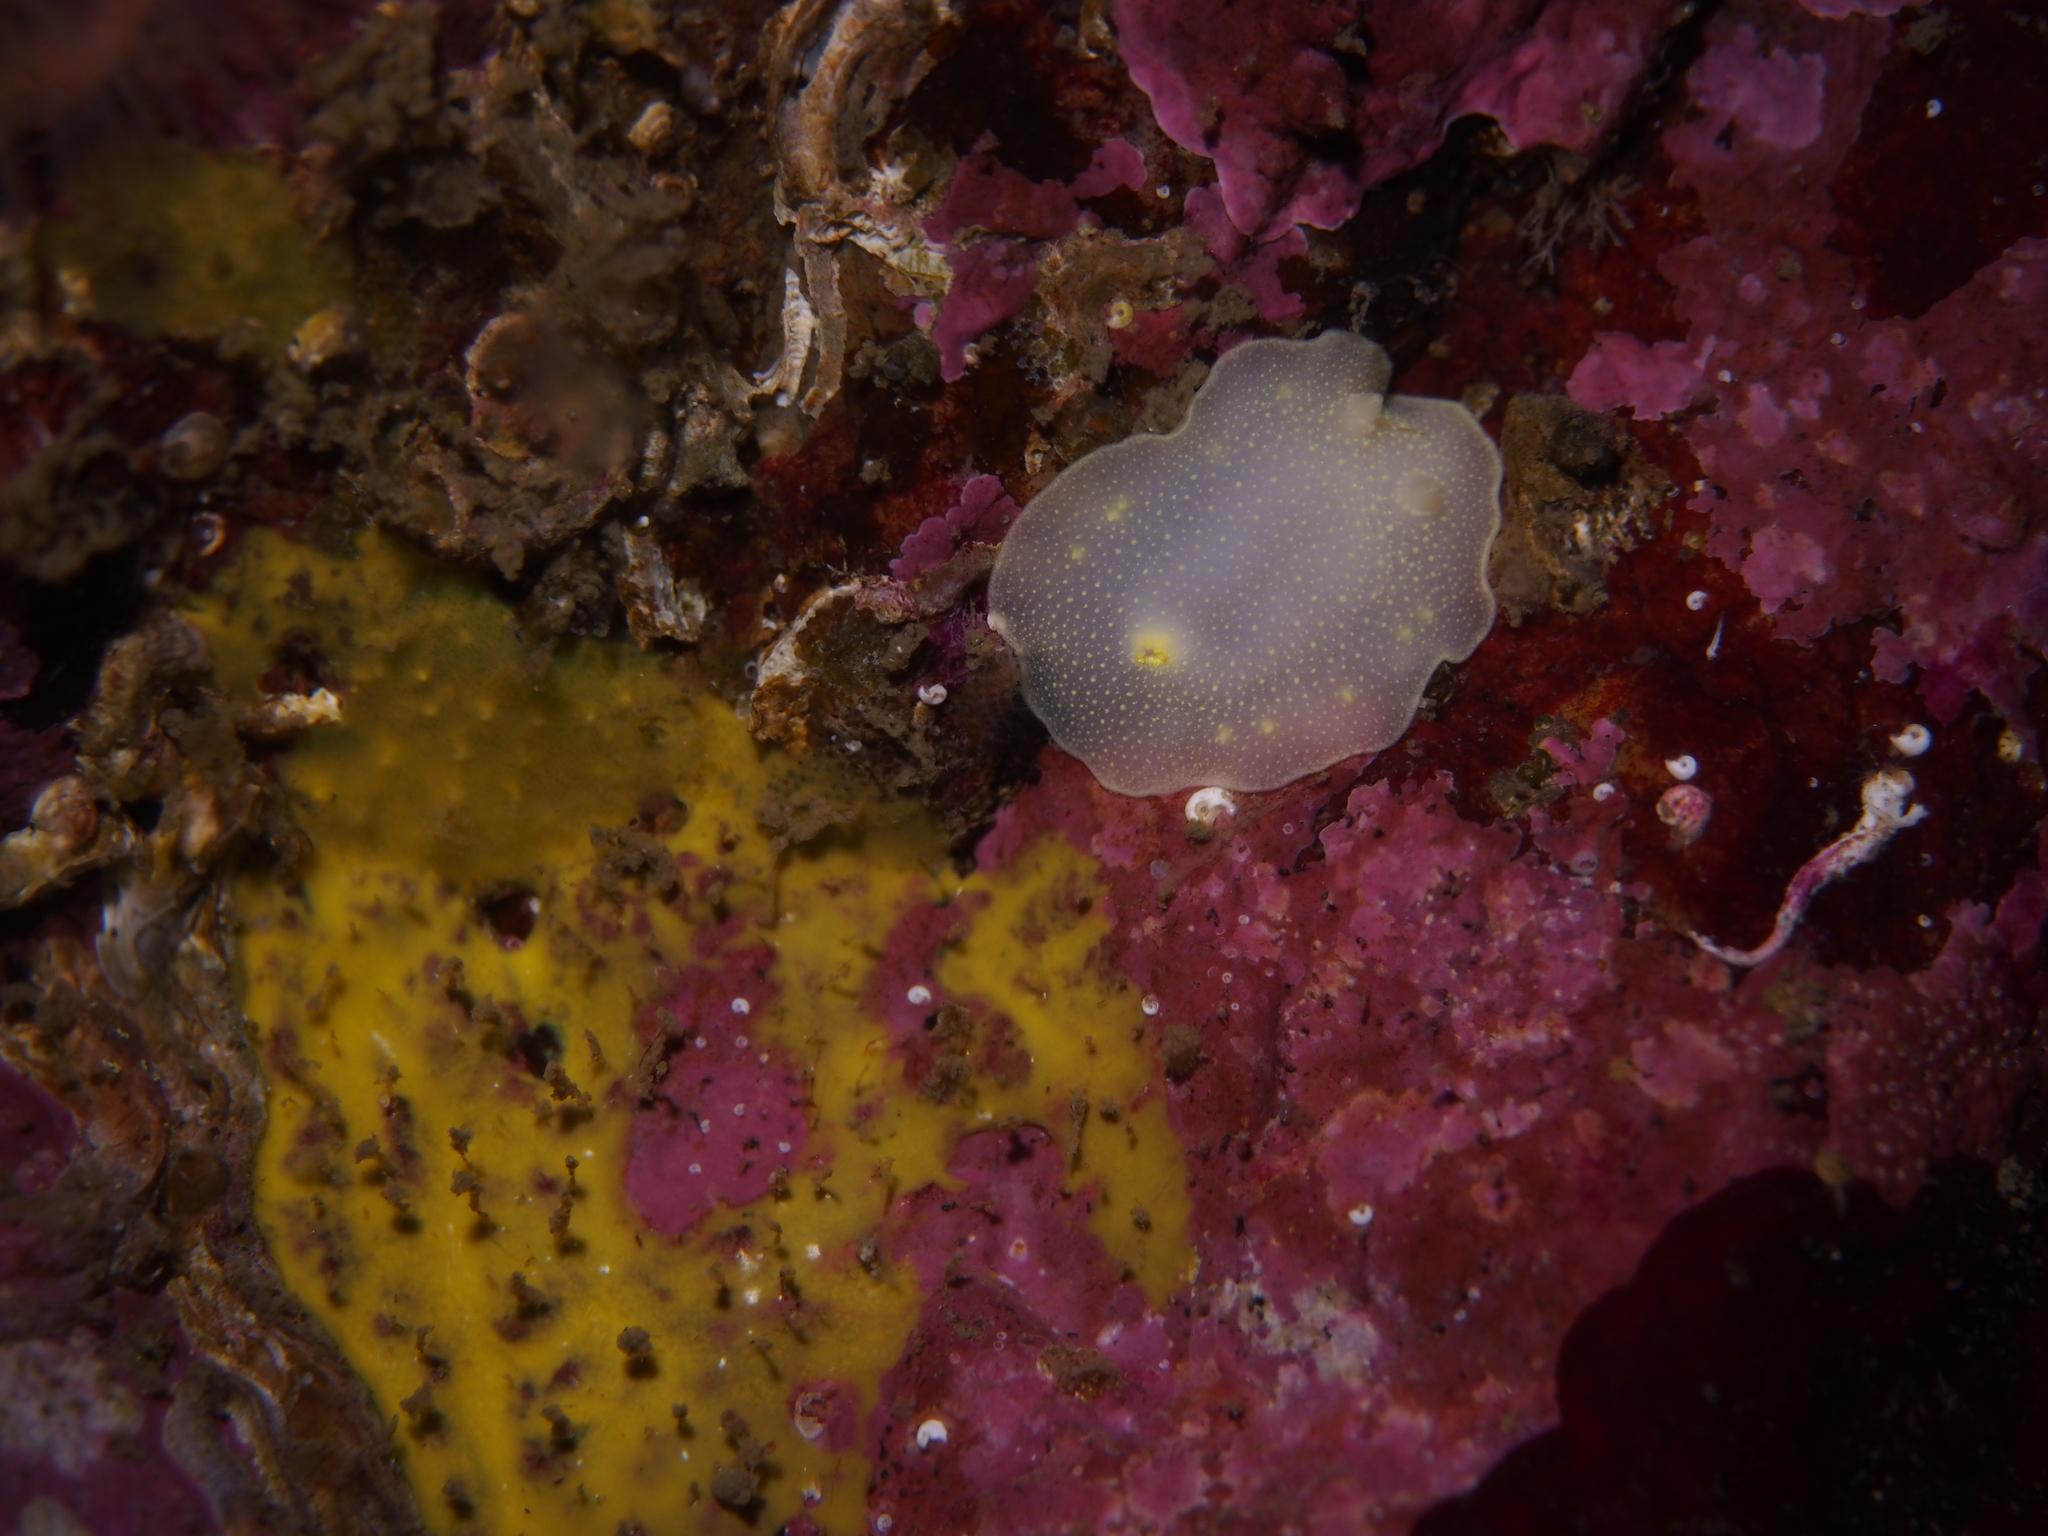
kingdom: Animalia
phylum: Mollusca
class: Gastropoda
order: Nudibranchia
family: Cadlinidae
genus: Cadlina
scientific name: Cadlina laevis
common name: White atlantic cadlina
